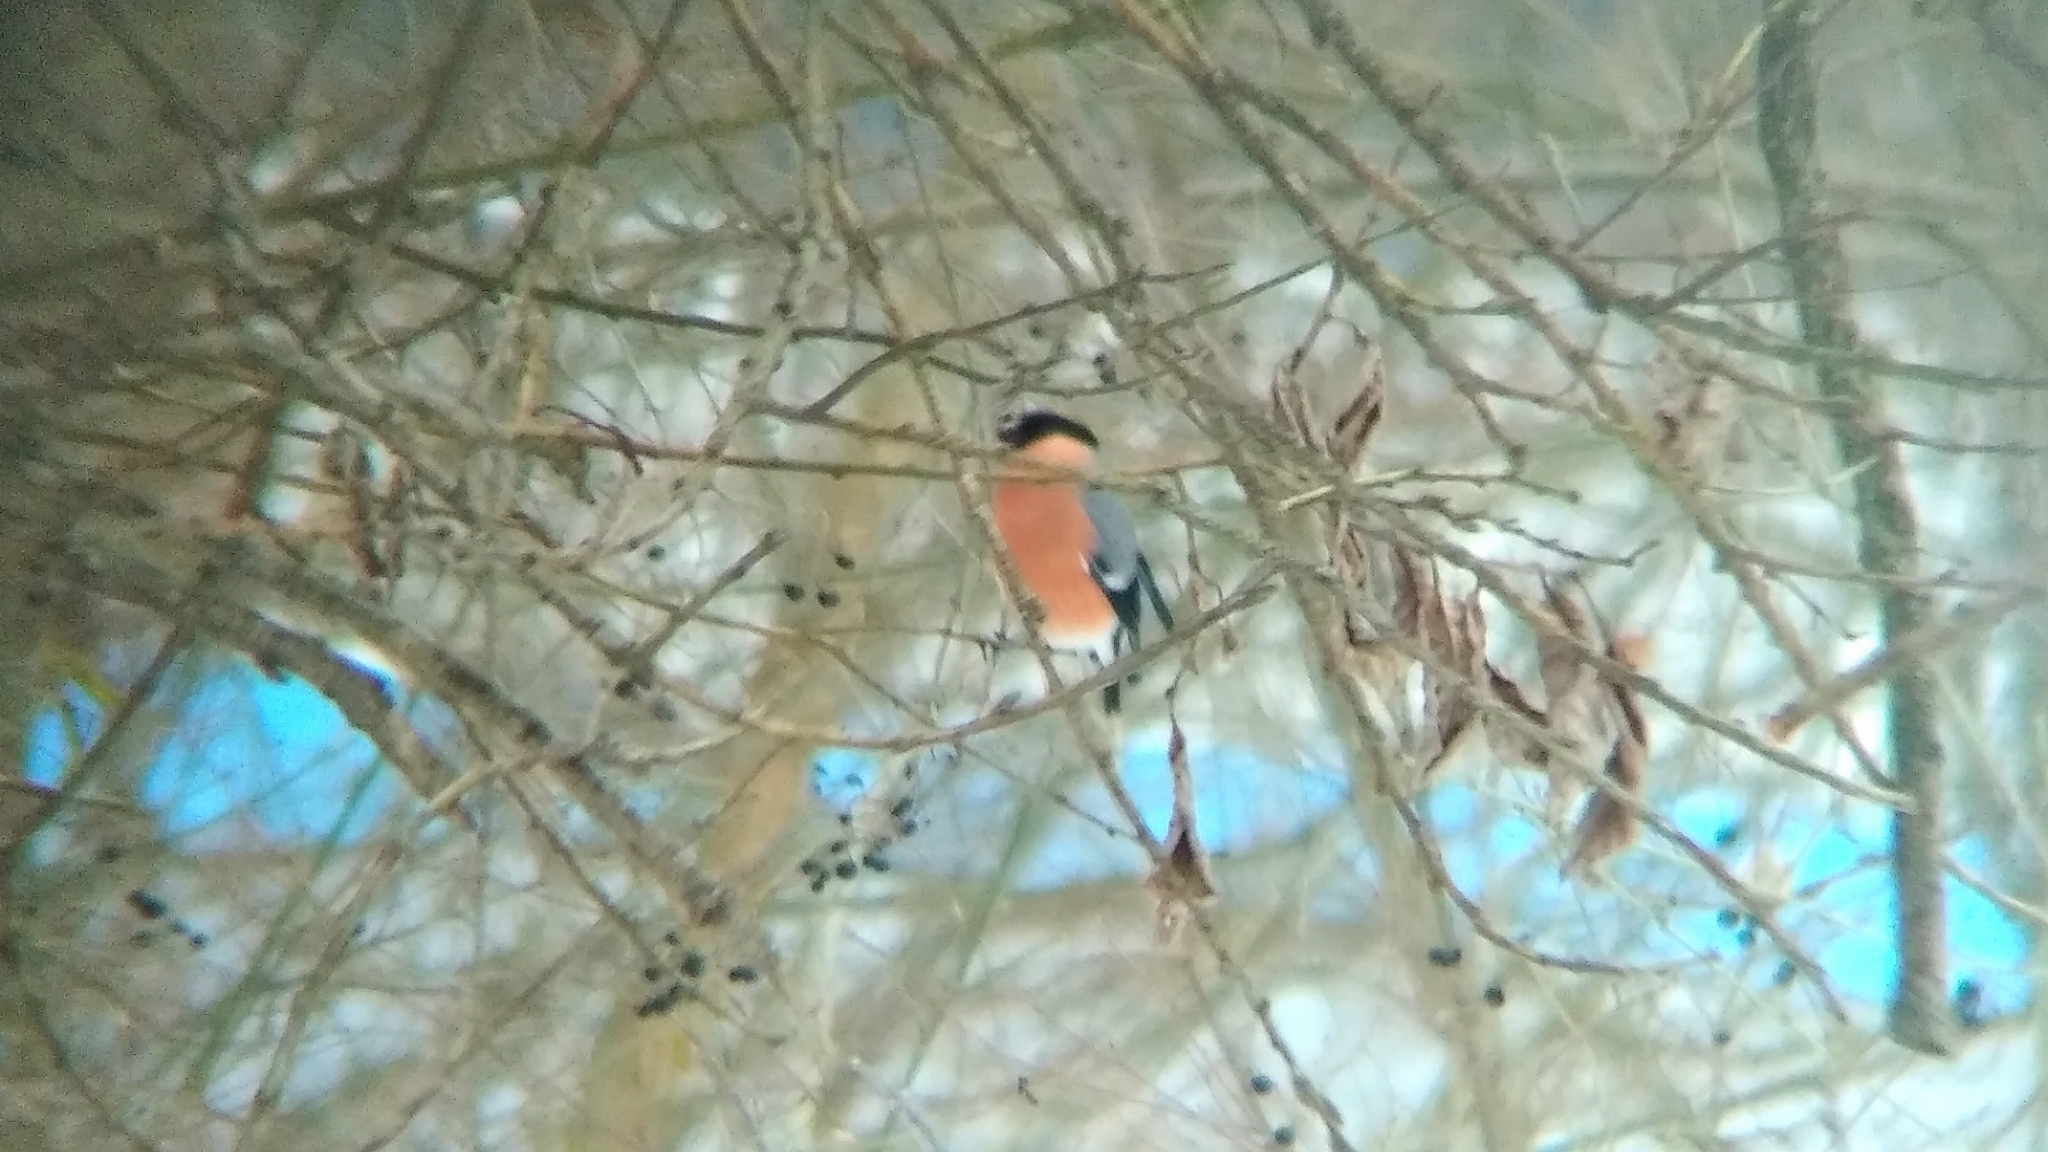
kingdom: Animalia
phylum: Chordata
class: Aves
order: Passeriformes
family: Fringillidae
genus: Pyrrhula
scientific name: Pyrrhula pyrrhula
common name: Eurasian bullfinch
